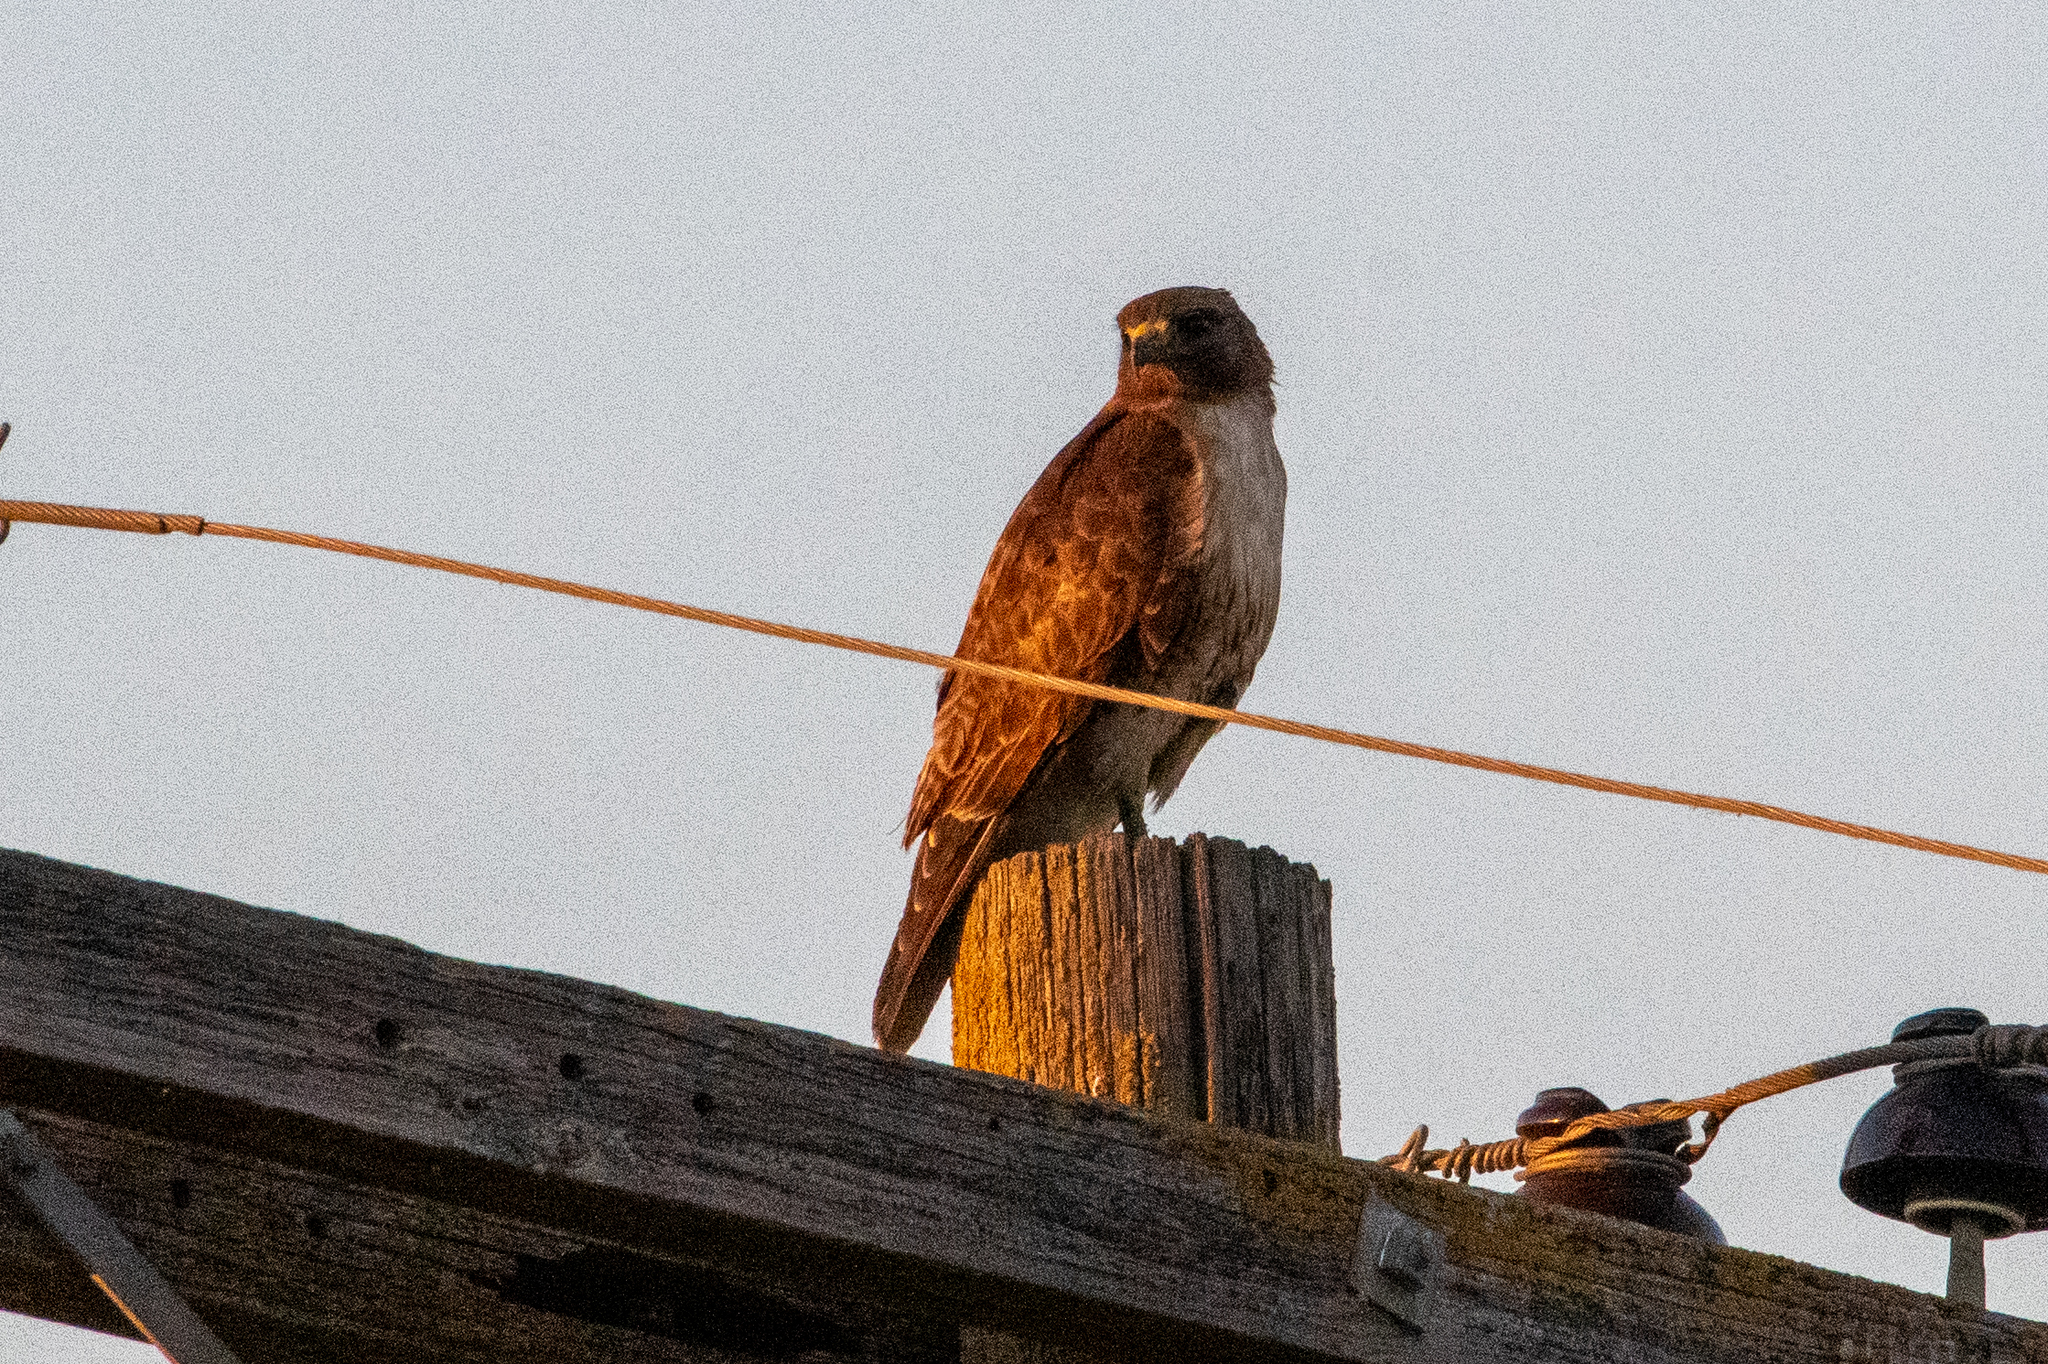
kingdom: Animalia
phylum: Chordata
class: Aves
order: Accipitriformes
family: Accipitridae
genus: Buteo
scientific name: Buteo jamaicensis
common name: Red-tailed hawk
